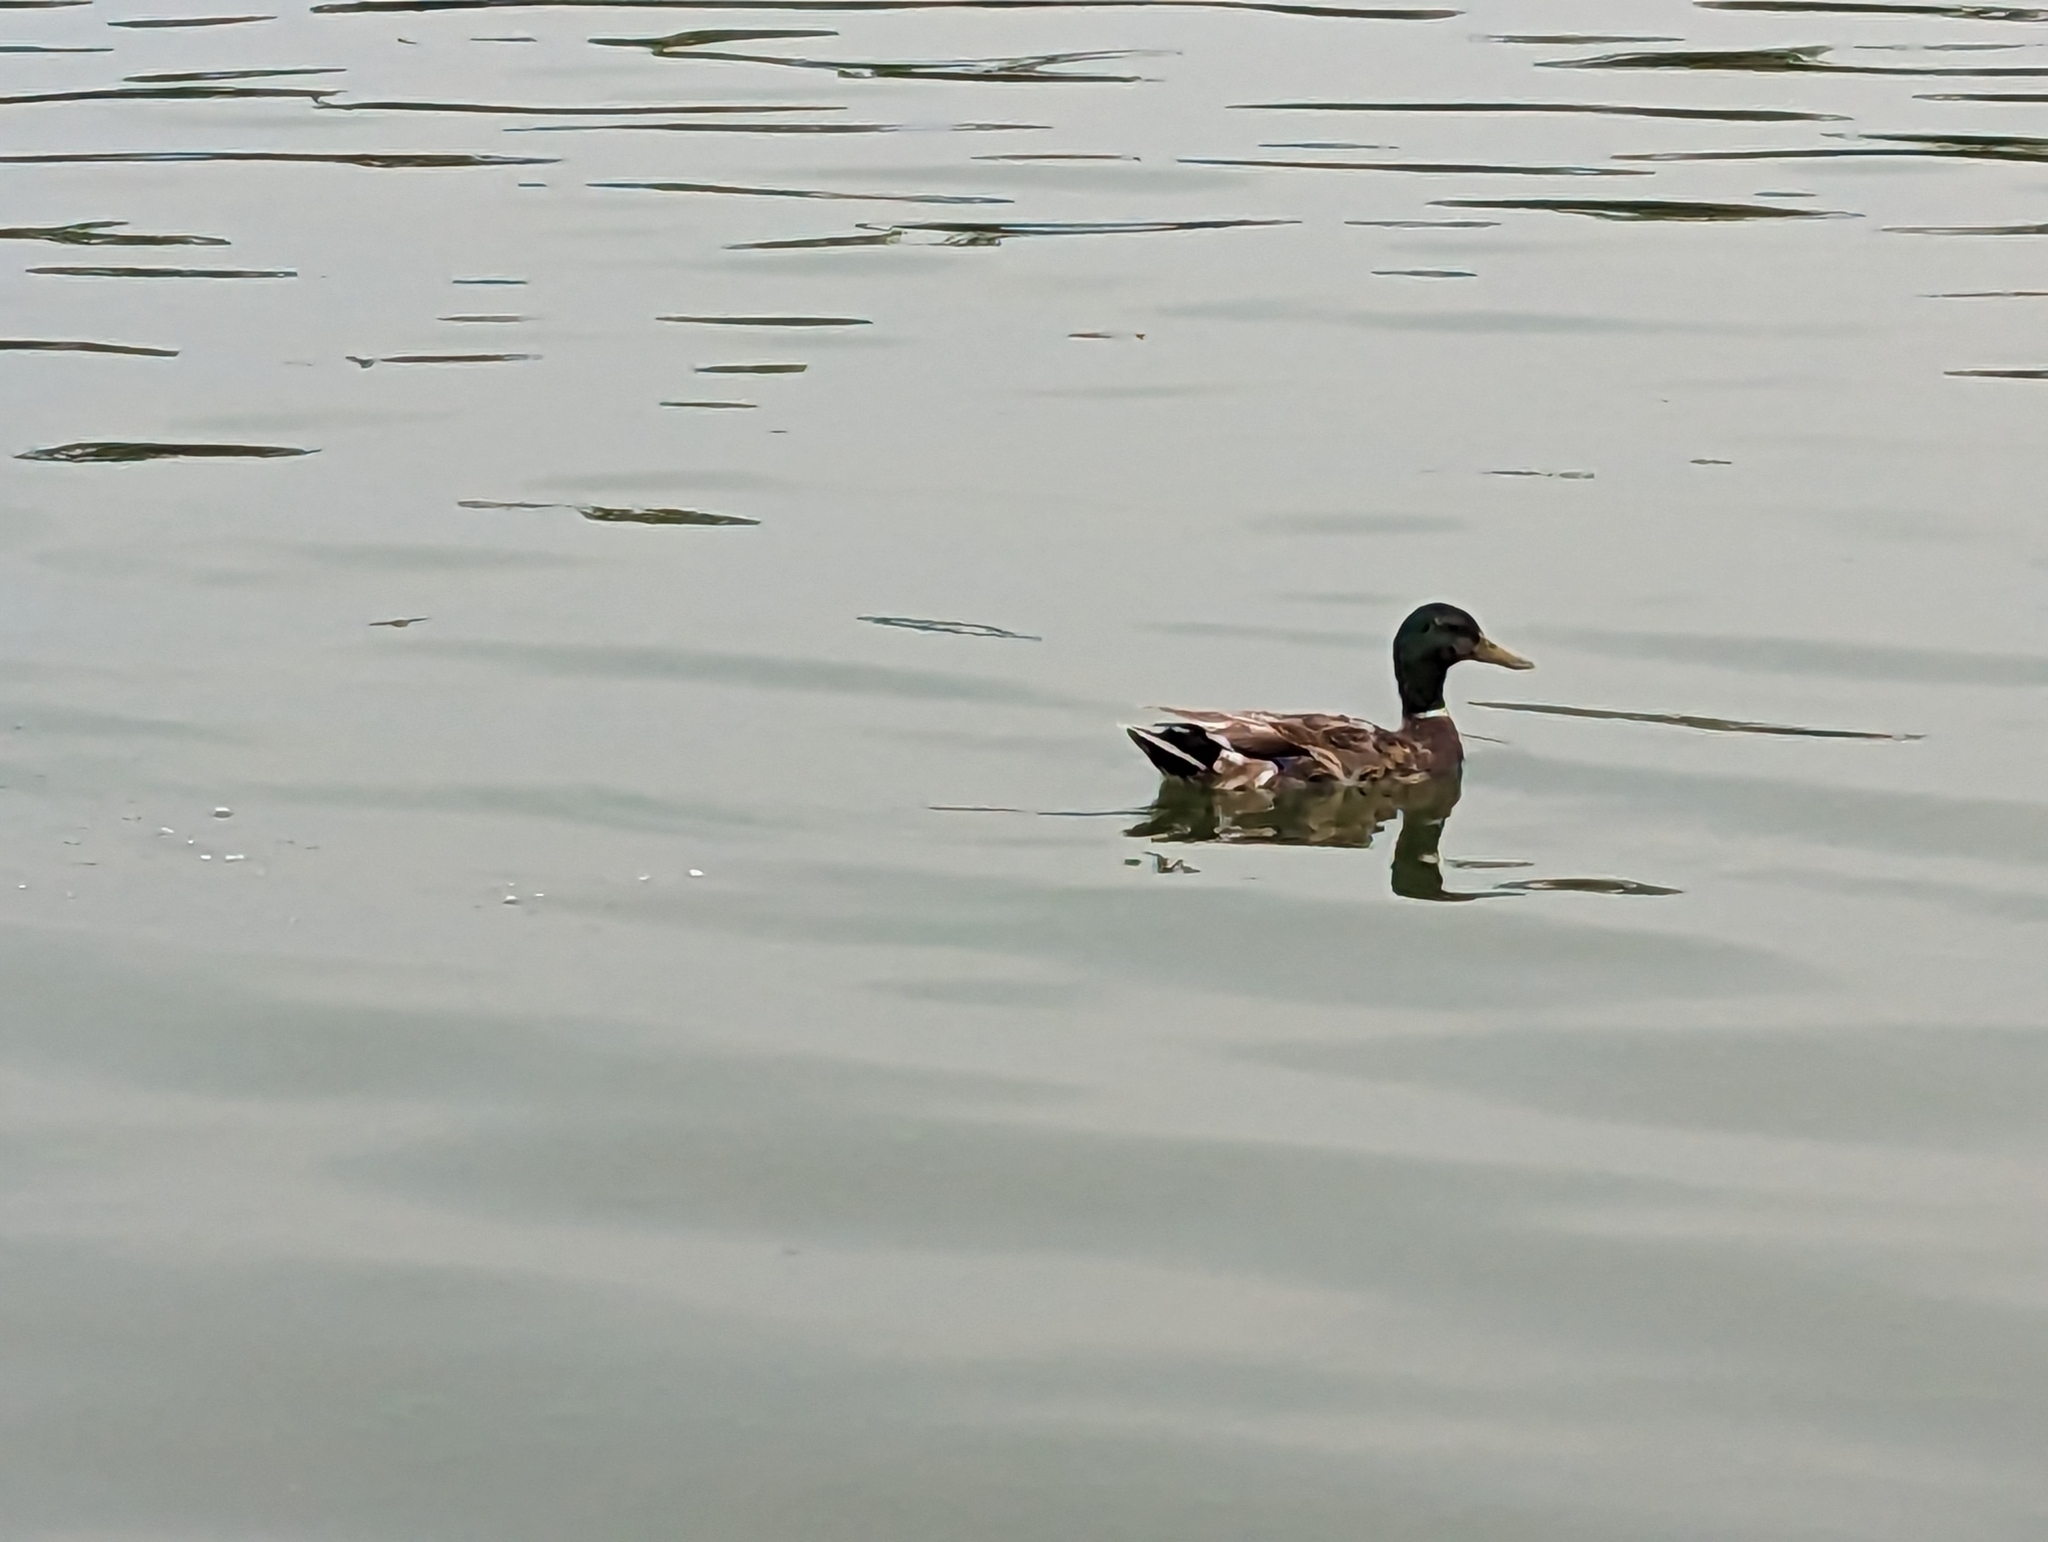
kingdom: Animalia
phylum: Chordata
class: Aves
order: Anseriformes
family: Anatidae
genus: Anas
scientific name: Anas platyrhynchos
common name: Mallard
